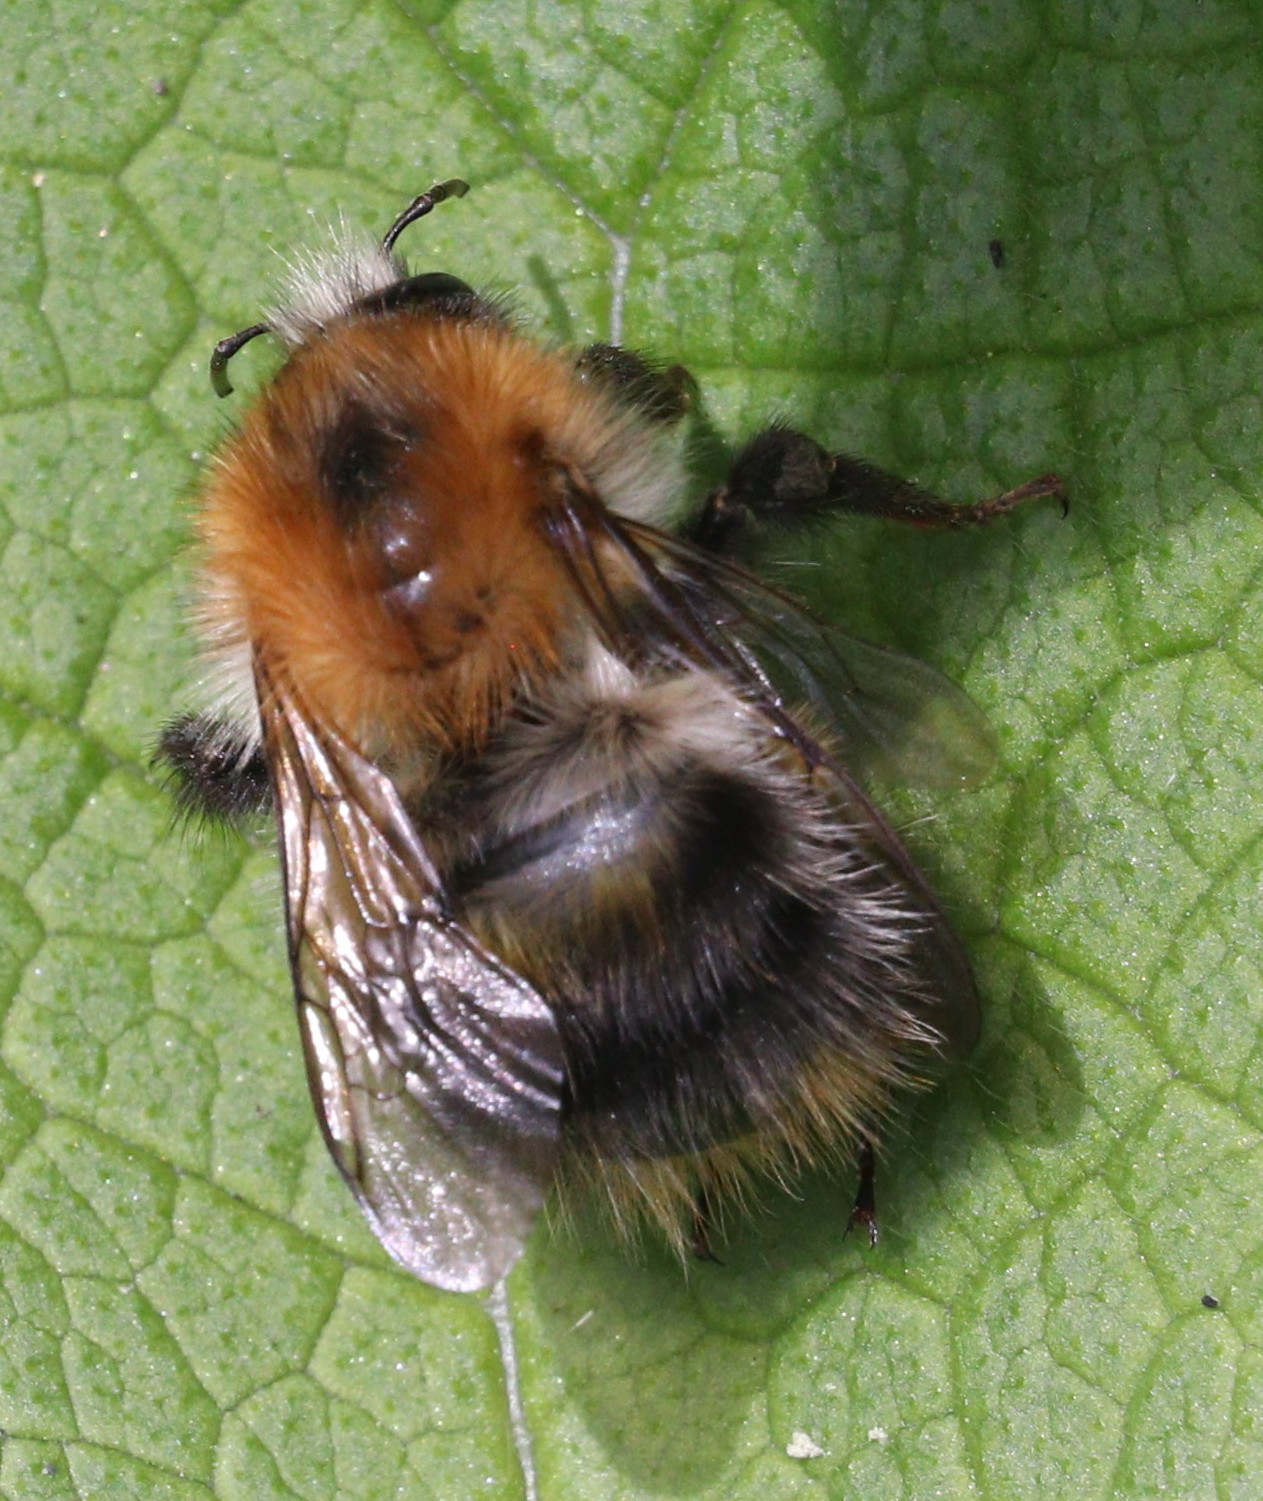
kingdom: Animalia
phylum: Arthropoda
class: Insecta
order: Hymenoptera
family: Apidae
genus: Bombus
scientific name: Bombus pascuorum
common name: Common carder bee
